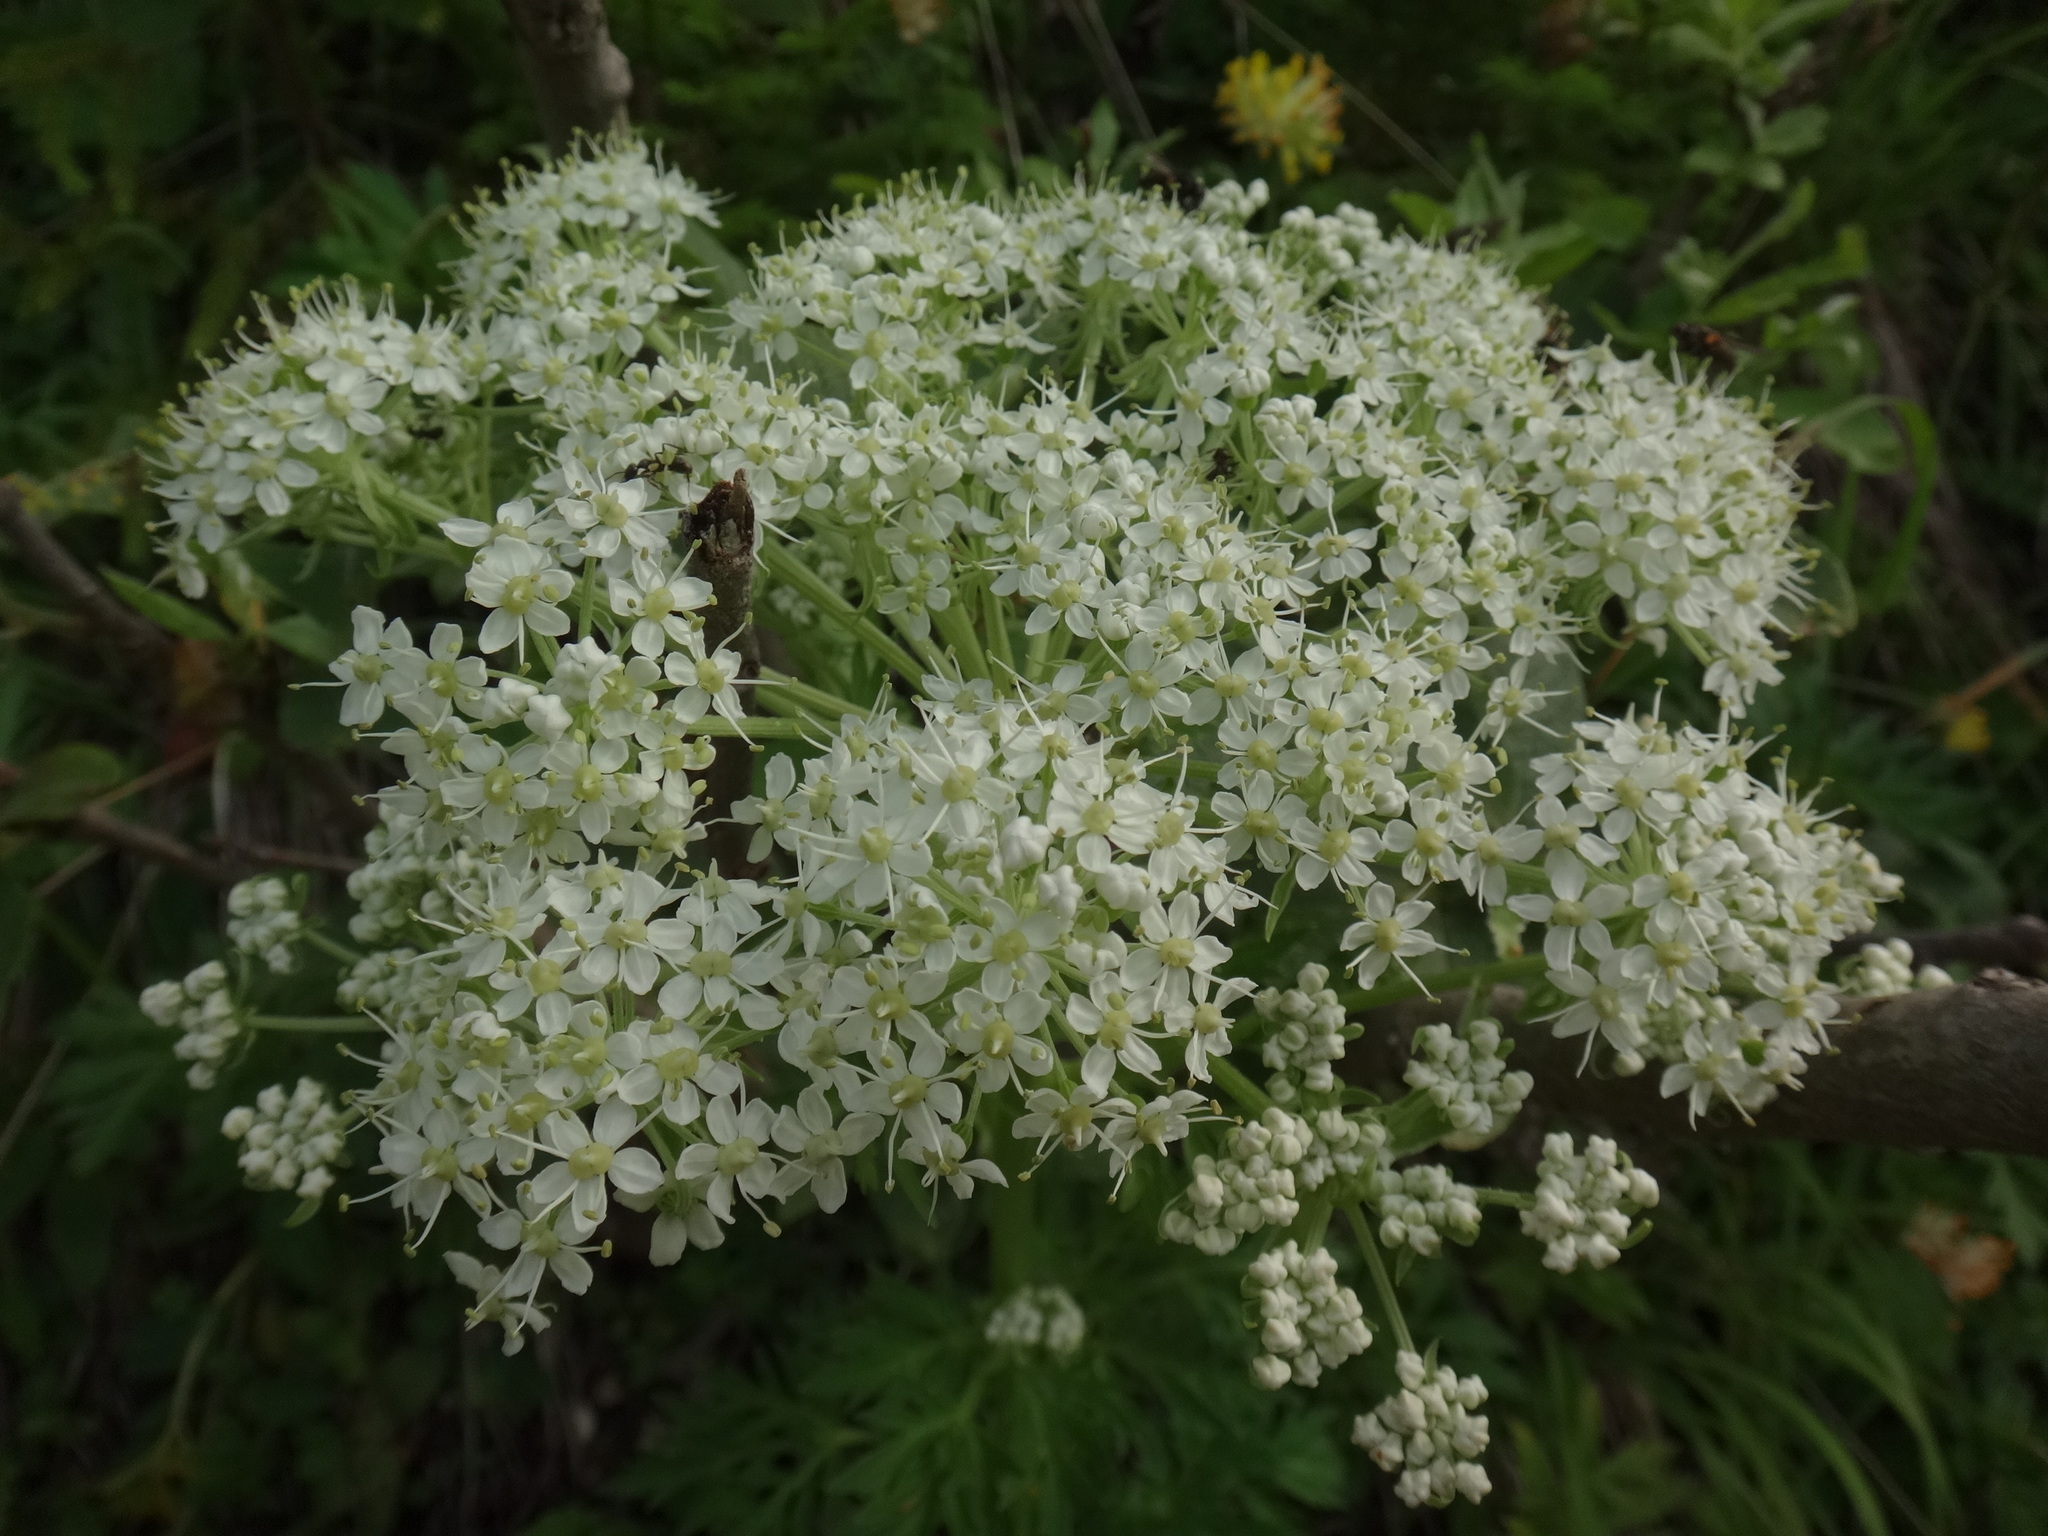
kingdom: Plantae
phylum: Tracheophyta
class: Magnoliopsida
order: Apiales
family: Apiaceae
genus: Pleurospermum
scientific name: Pleurospermum austriacum
